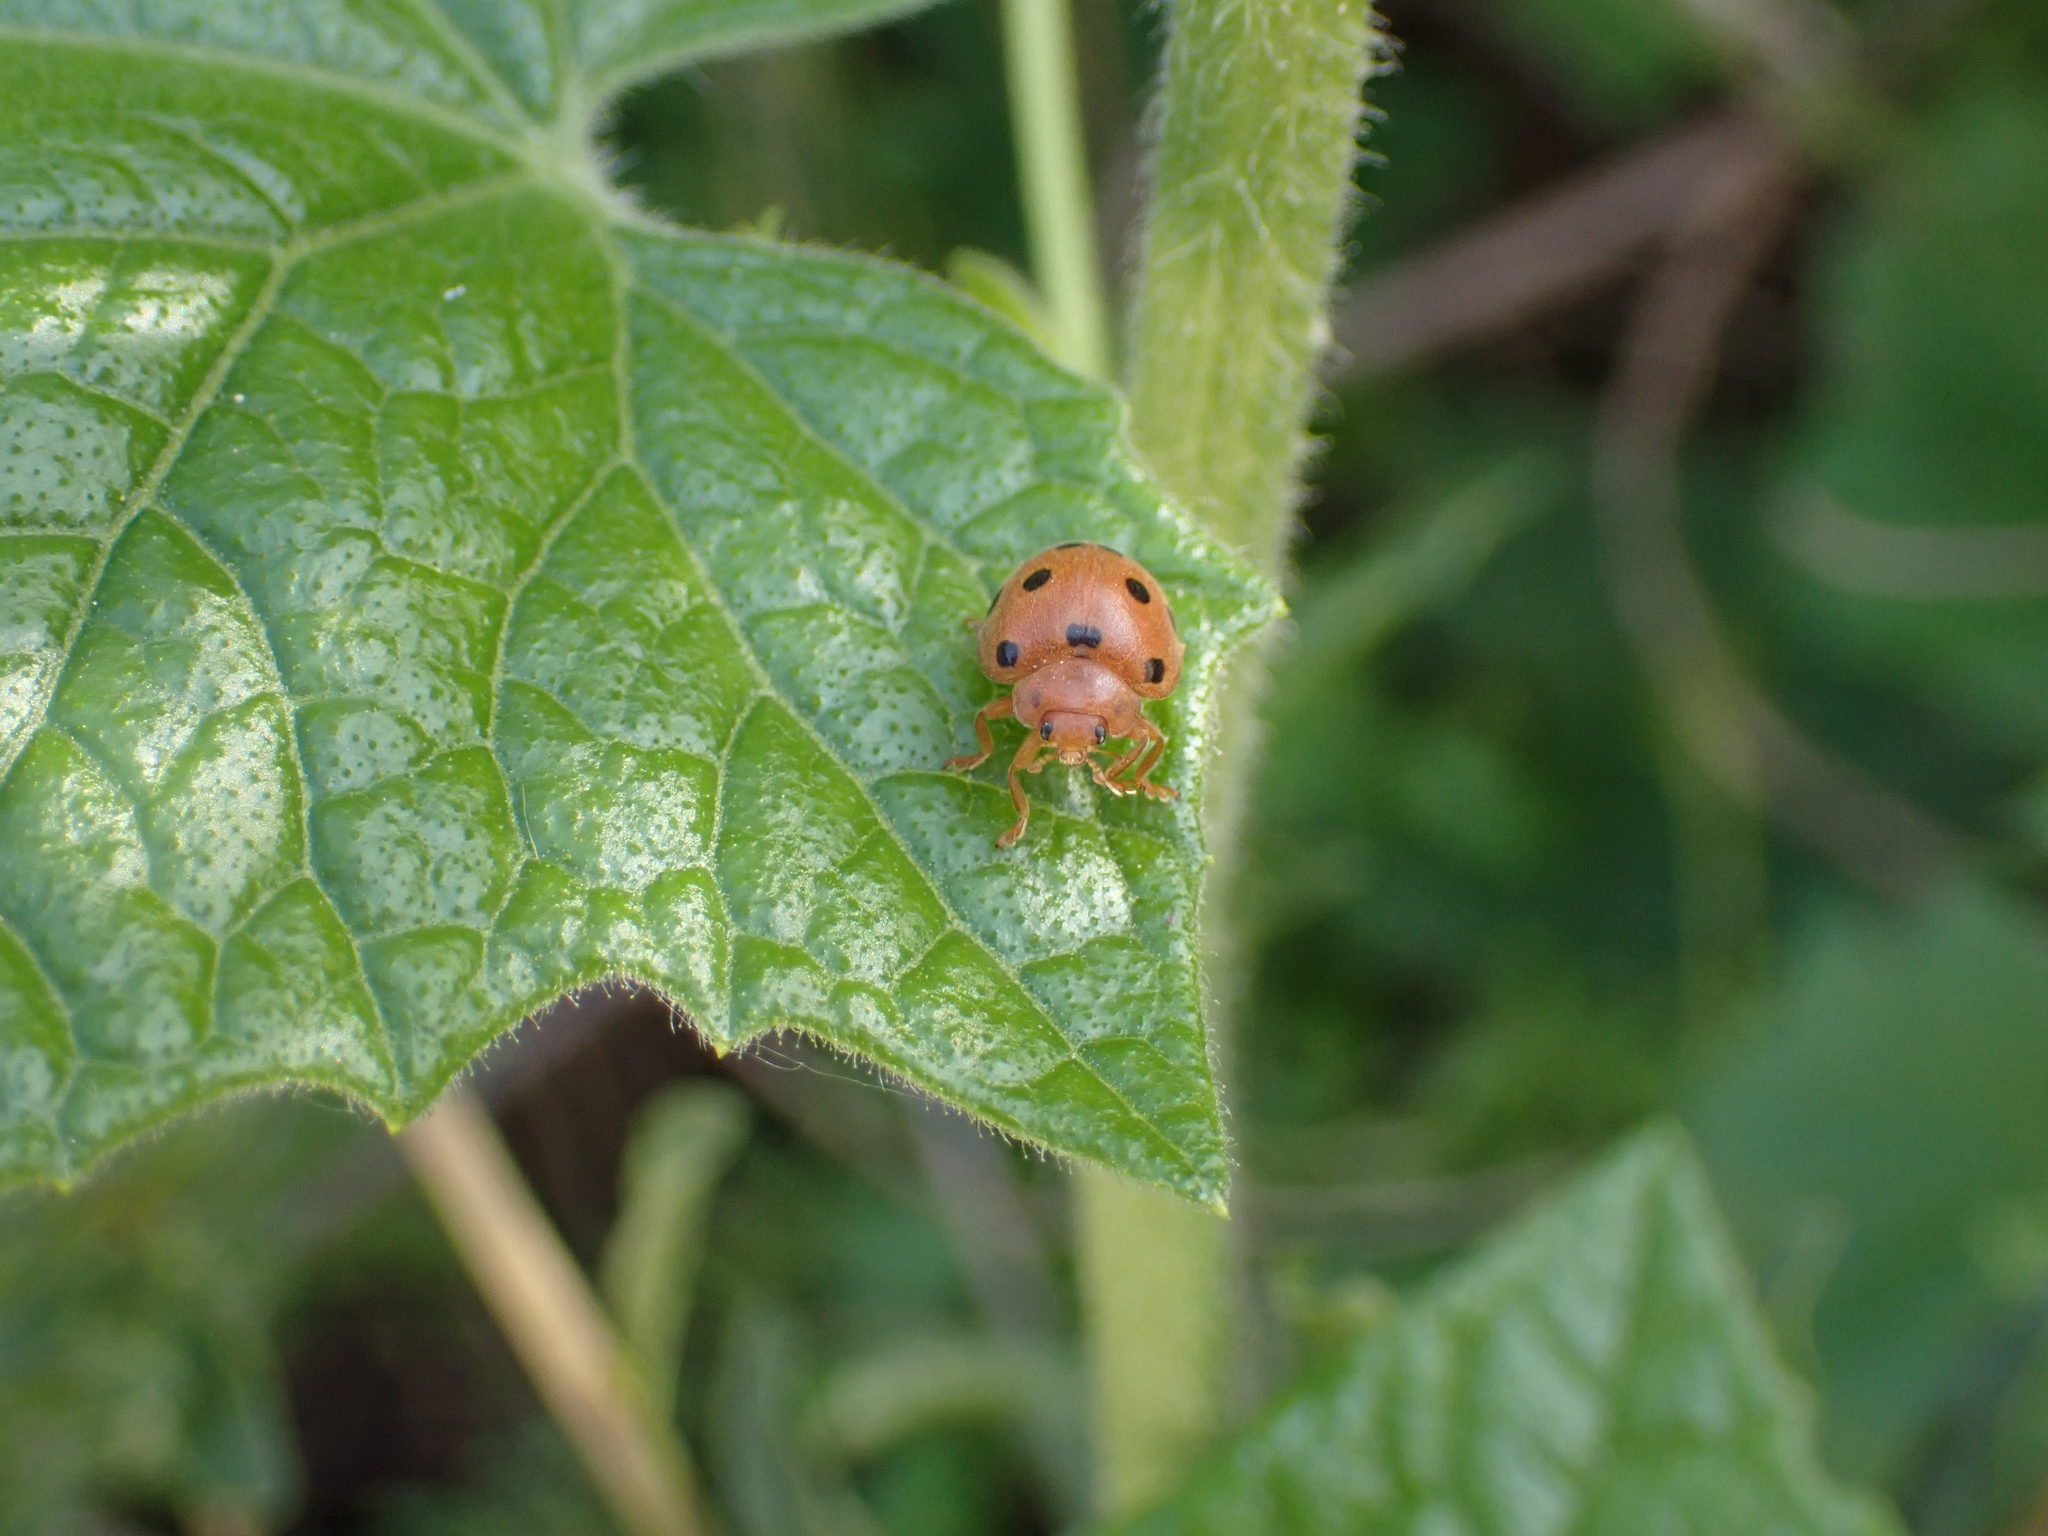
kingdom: Animalia
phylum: Arthropoda
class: Insecta
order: Coleoptera
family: Coccinellidae
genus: Henosepilachna
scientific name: Henosepilachna argus
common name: Bryony ladybird
